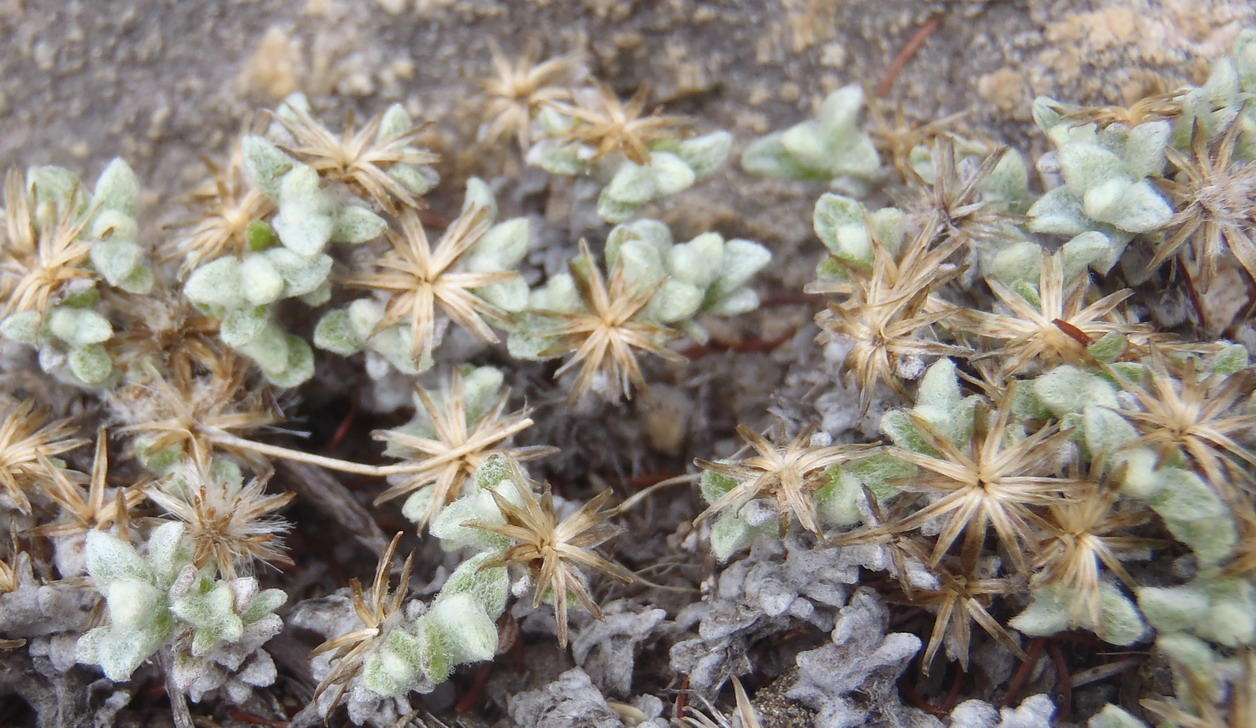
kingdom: Plantae
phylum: Tracheophyta
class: Magnoliopsida
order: Asterales
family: Asteraceae
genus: Helichrysum
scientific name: Helichrysum saxicola
